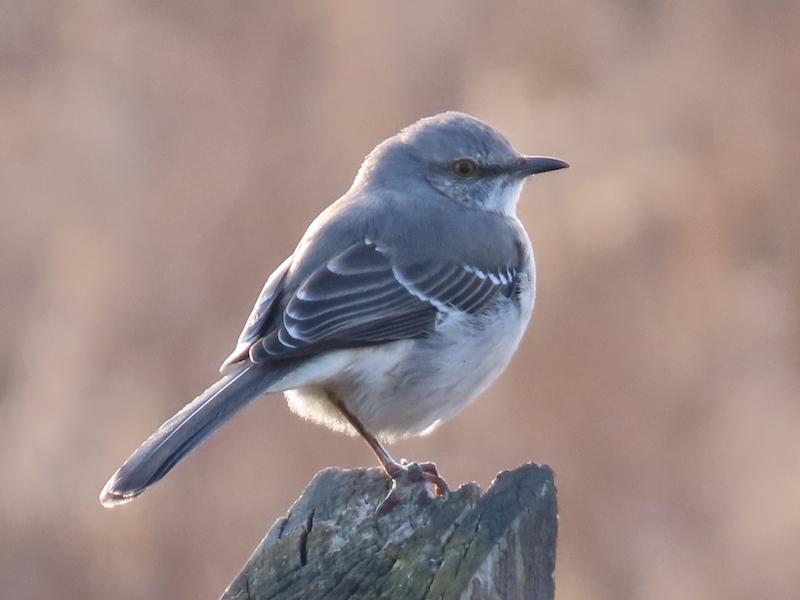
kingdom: Animalia
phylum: Chordata
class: Aves
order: Passeriformes
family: Mimidae
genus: Mimus
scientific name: Mimus polyglottos
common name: Northern mockingbird
